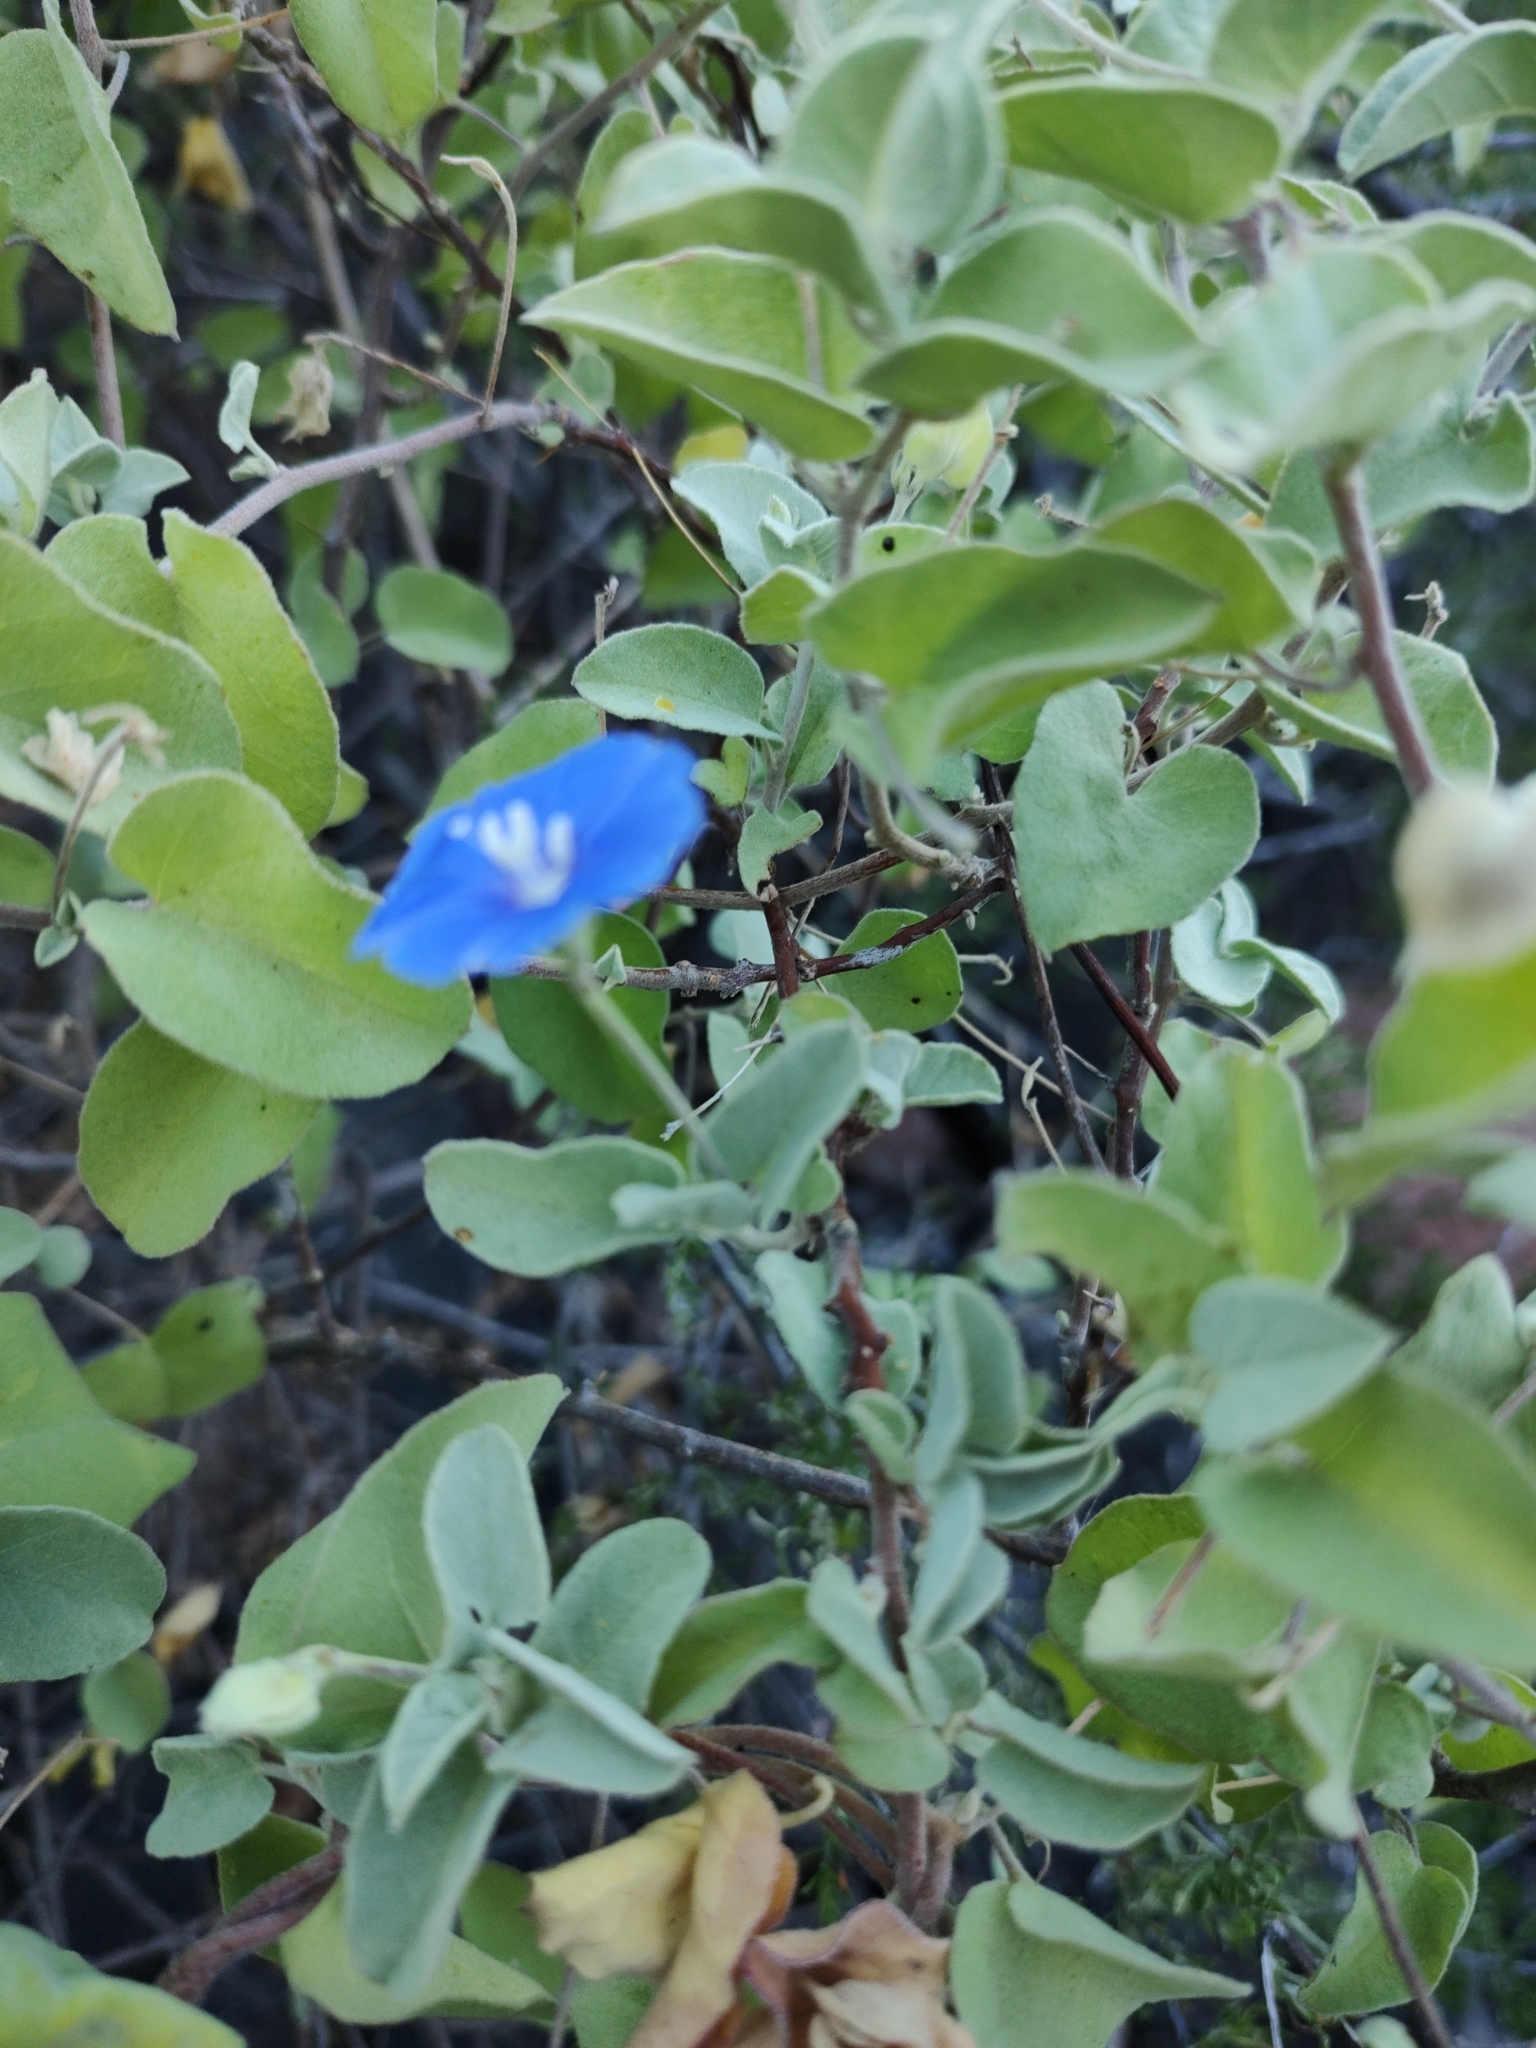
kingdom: Plantae
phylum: Tracheophyta
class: Magnoliopsida
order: Solanales
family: Convolvulaceae
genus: Jacquemontia
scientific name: Jacquemontia abutiloides
